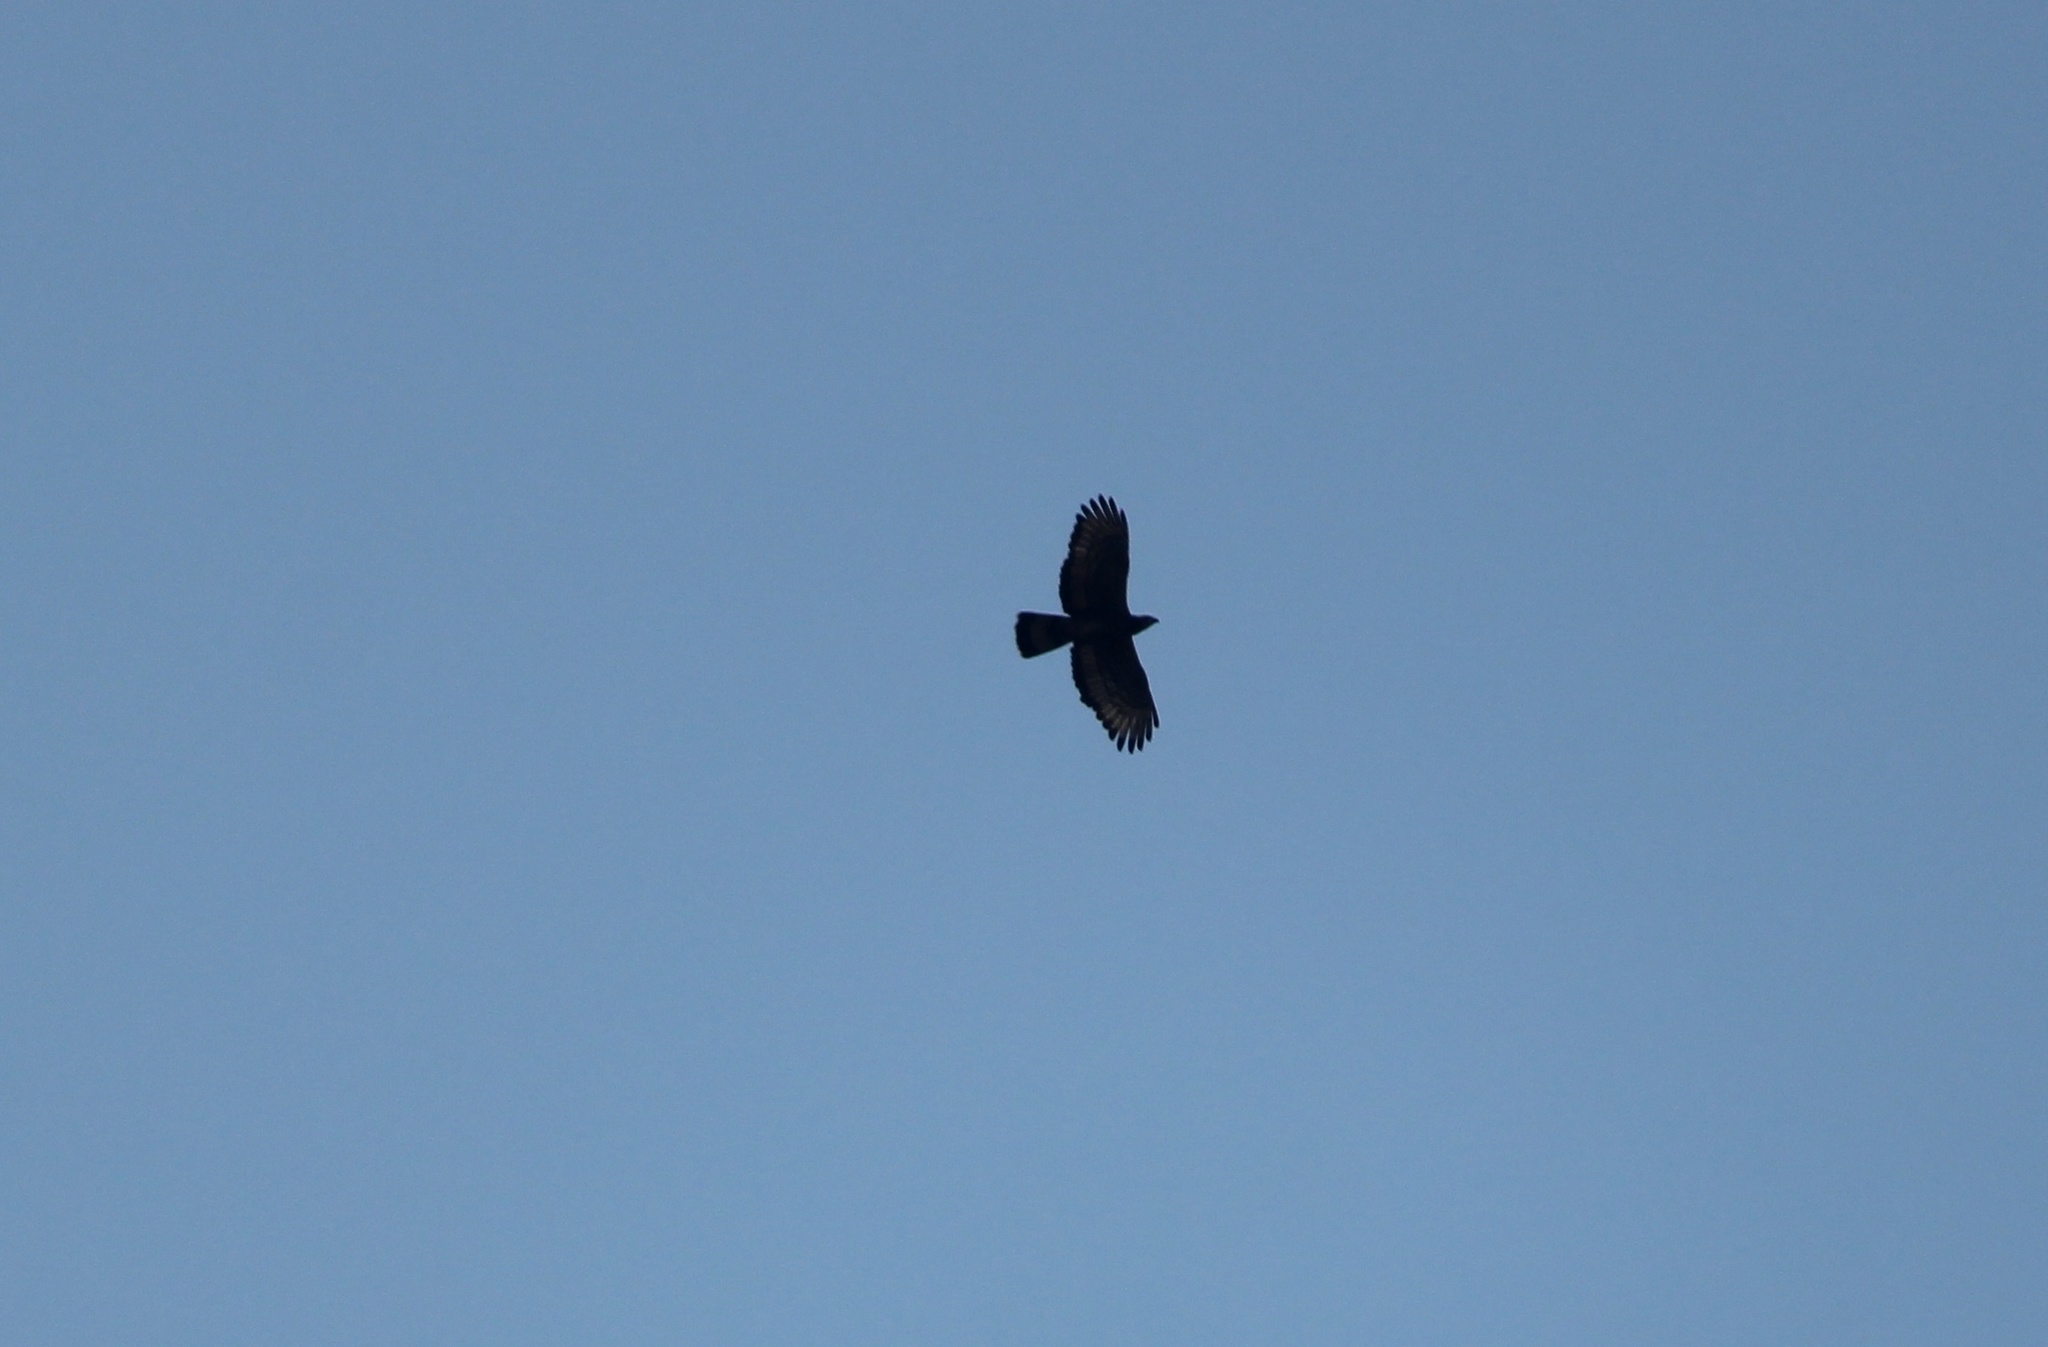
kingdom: Animalia
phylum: Chordata
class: Aves
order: Accipitriformes
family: Accipitridae
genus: Pernis
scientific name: Pernis ptilorhynchus
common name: Crested honey buzzard
